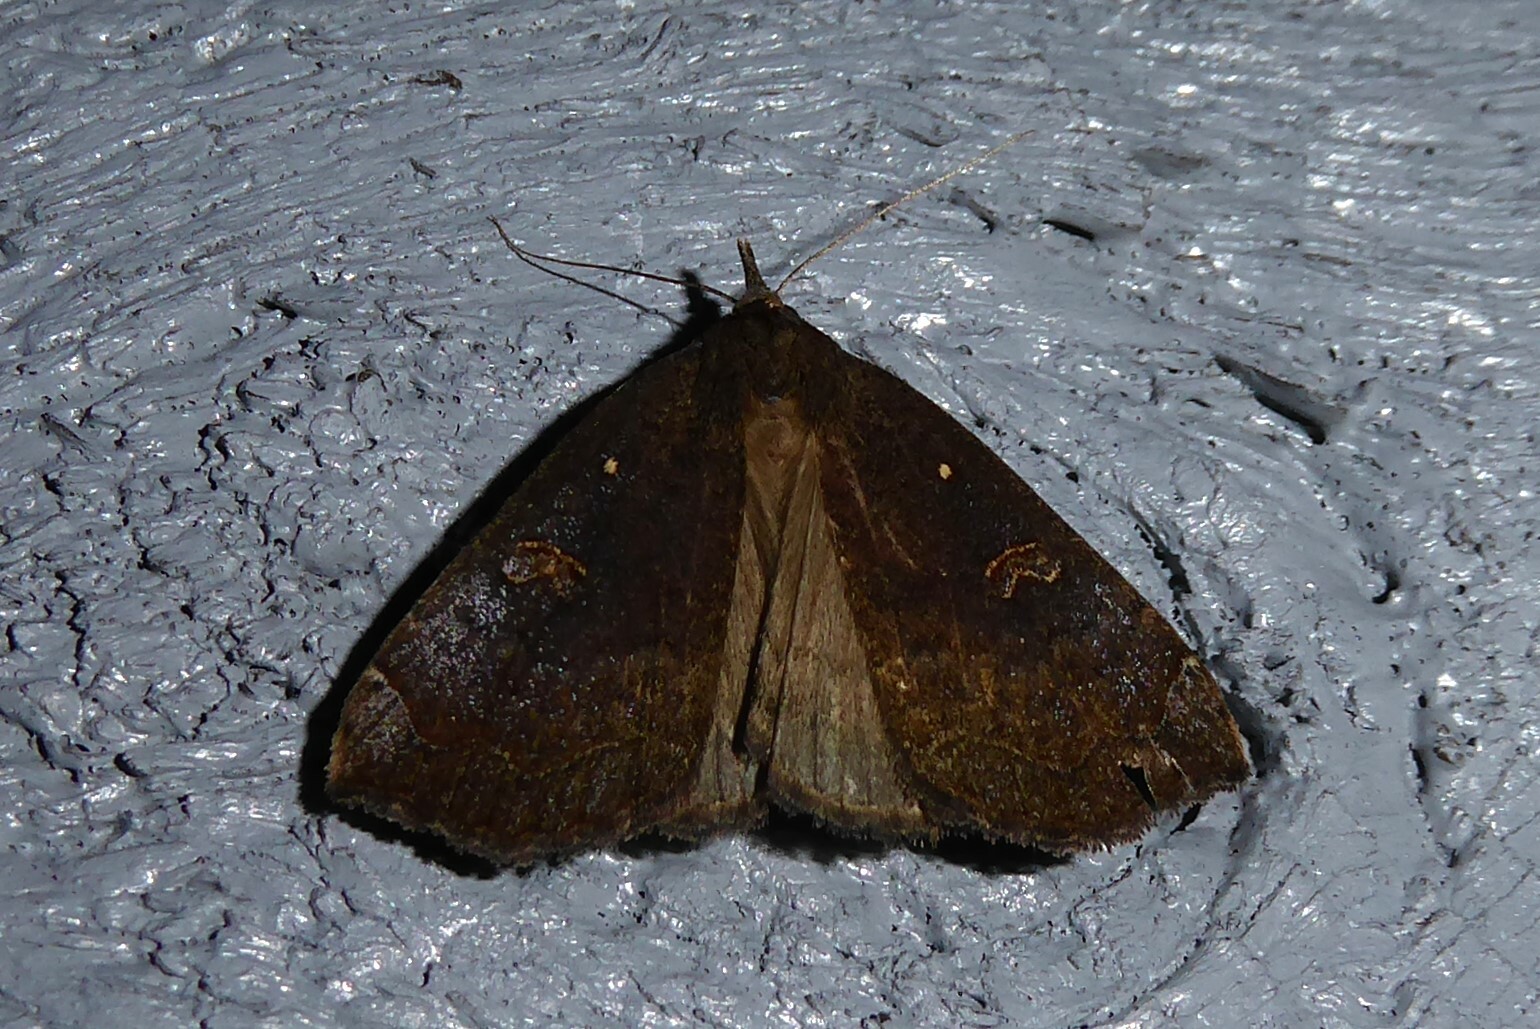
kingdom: Animalia
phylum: Arthropoda
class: Insecta
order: Lepidoptera
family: Erebidae
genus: Rhapsa
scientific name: Rhapsa scotosialis
